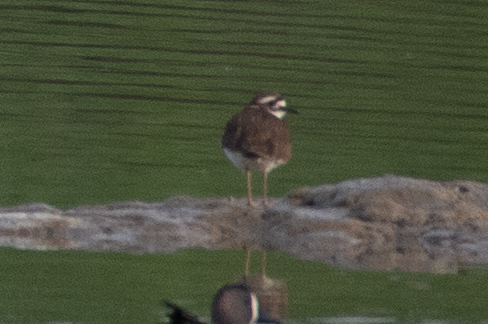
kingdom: Animalia
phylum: Chordata
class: Aves
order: Charadriiformes
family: Charadriidae
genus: Charadrius
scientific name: Charadrius vociferus
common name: Killdeer
